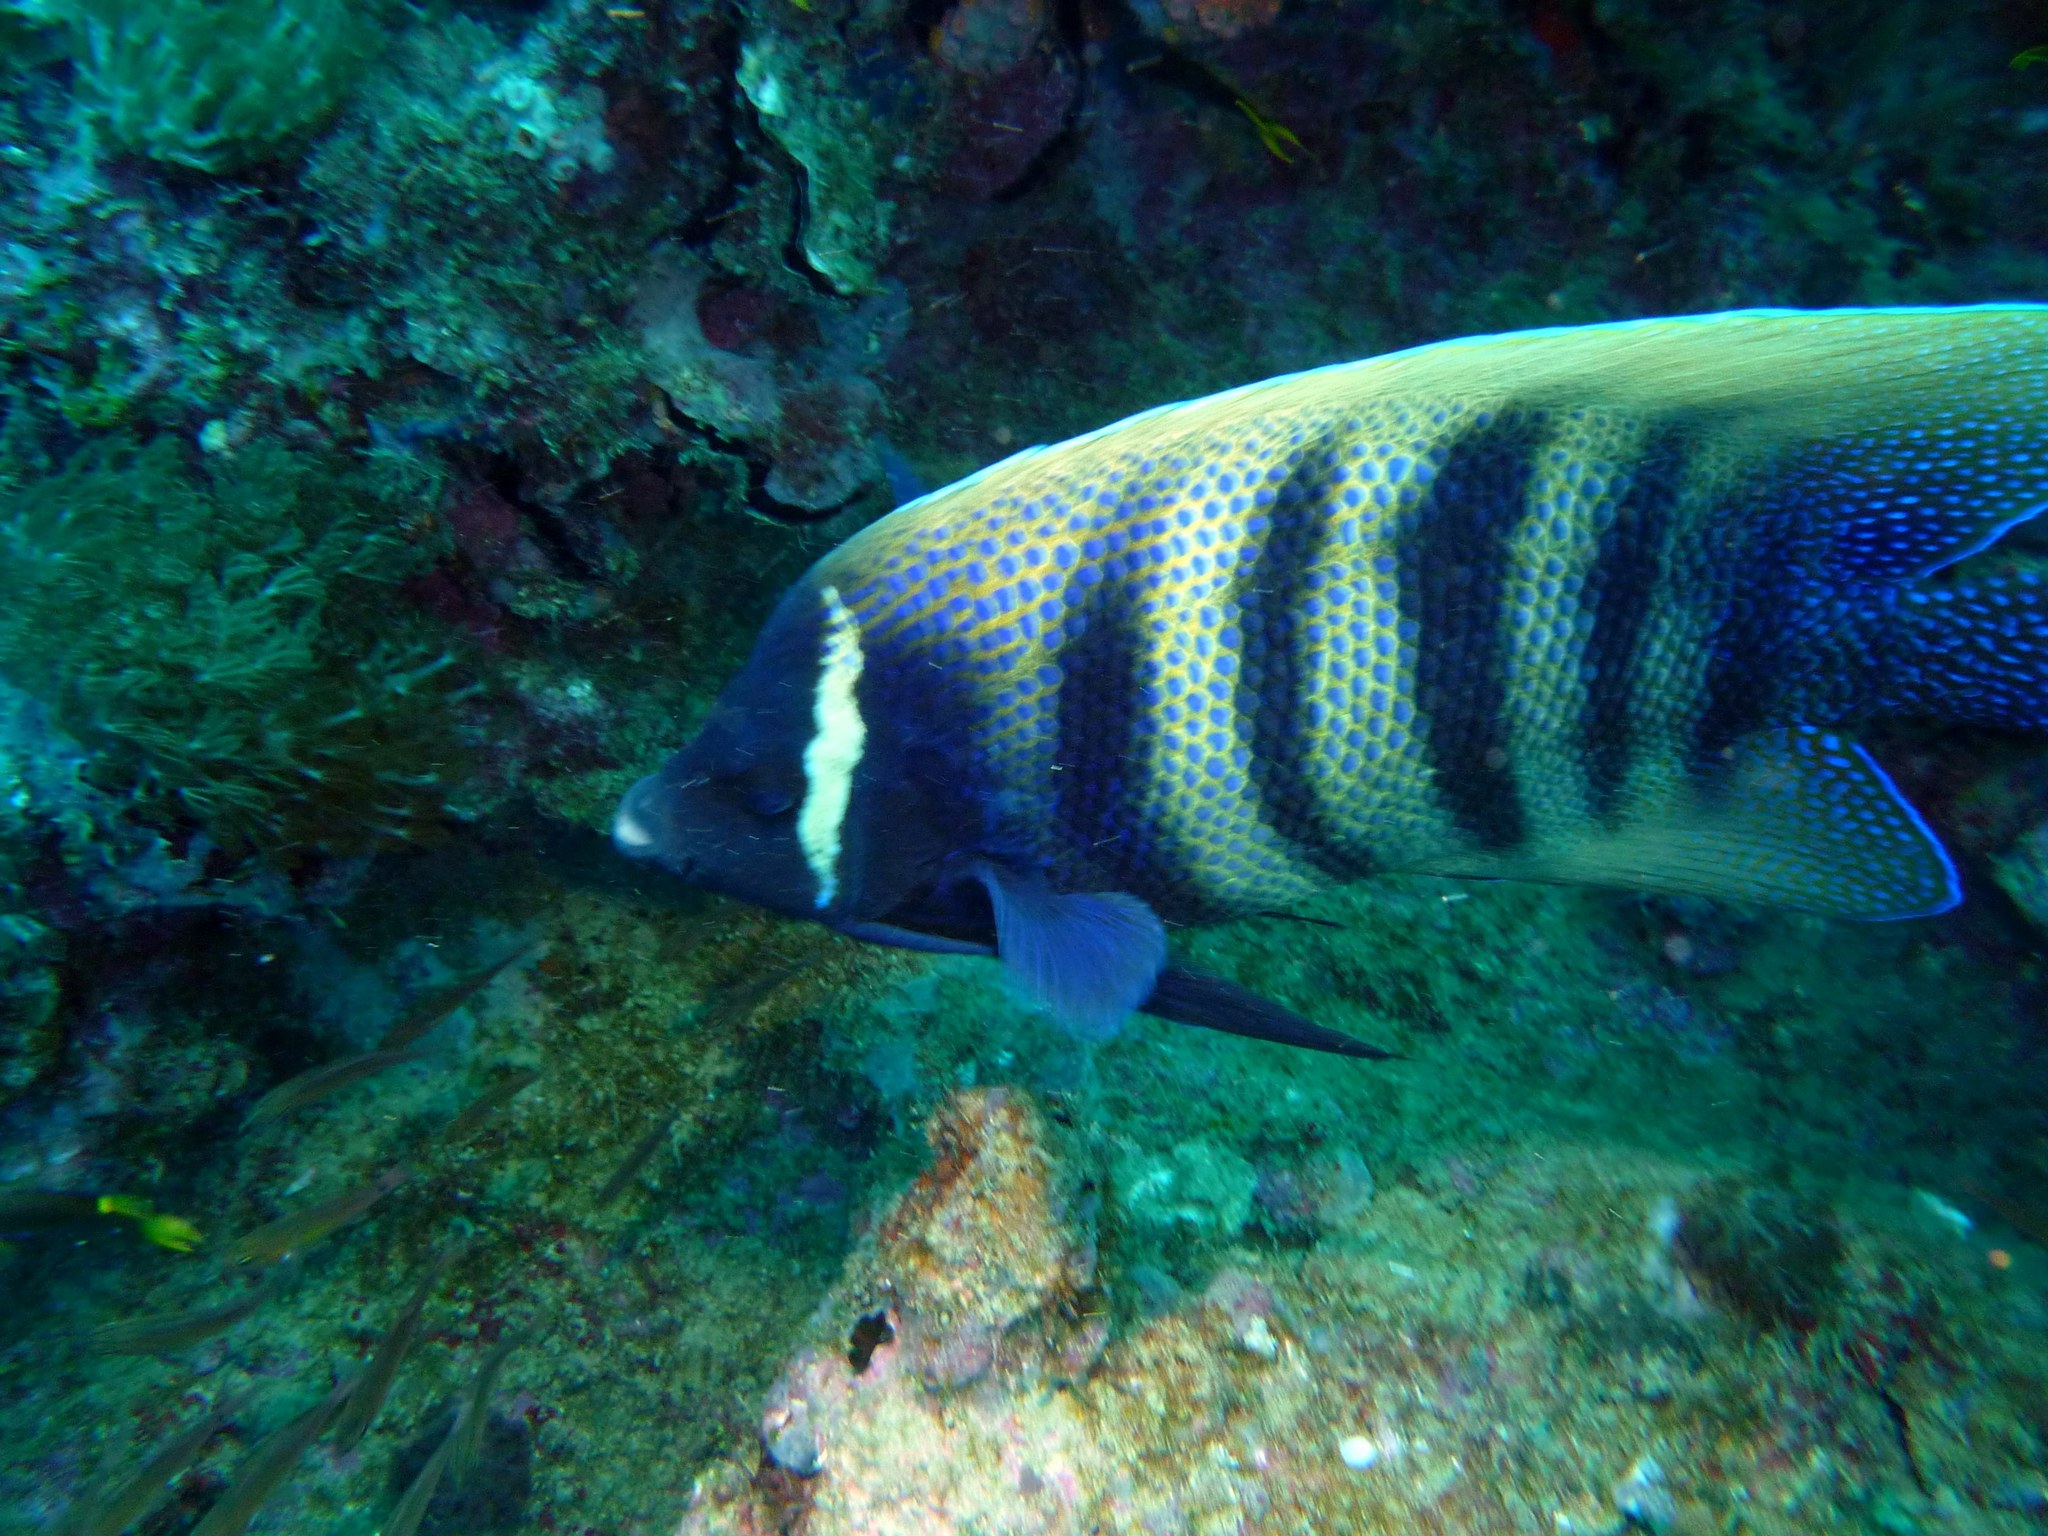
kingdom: Animalia
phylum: Chordata
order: Perciformes
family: Pomacanthidae
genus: Pomacanthus
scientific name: Pomacanthus sexstriatus
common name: Six-banded angelfish
